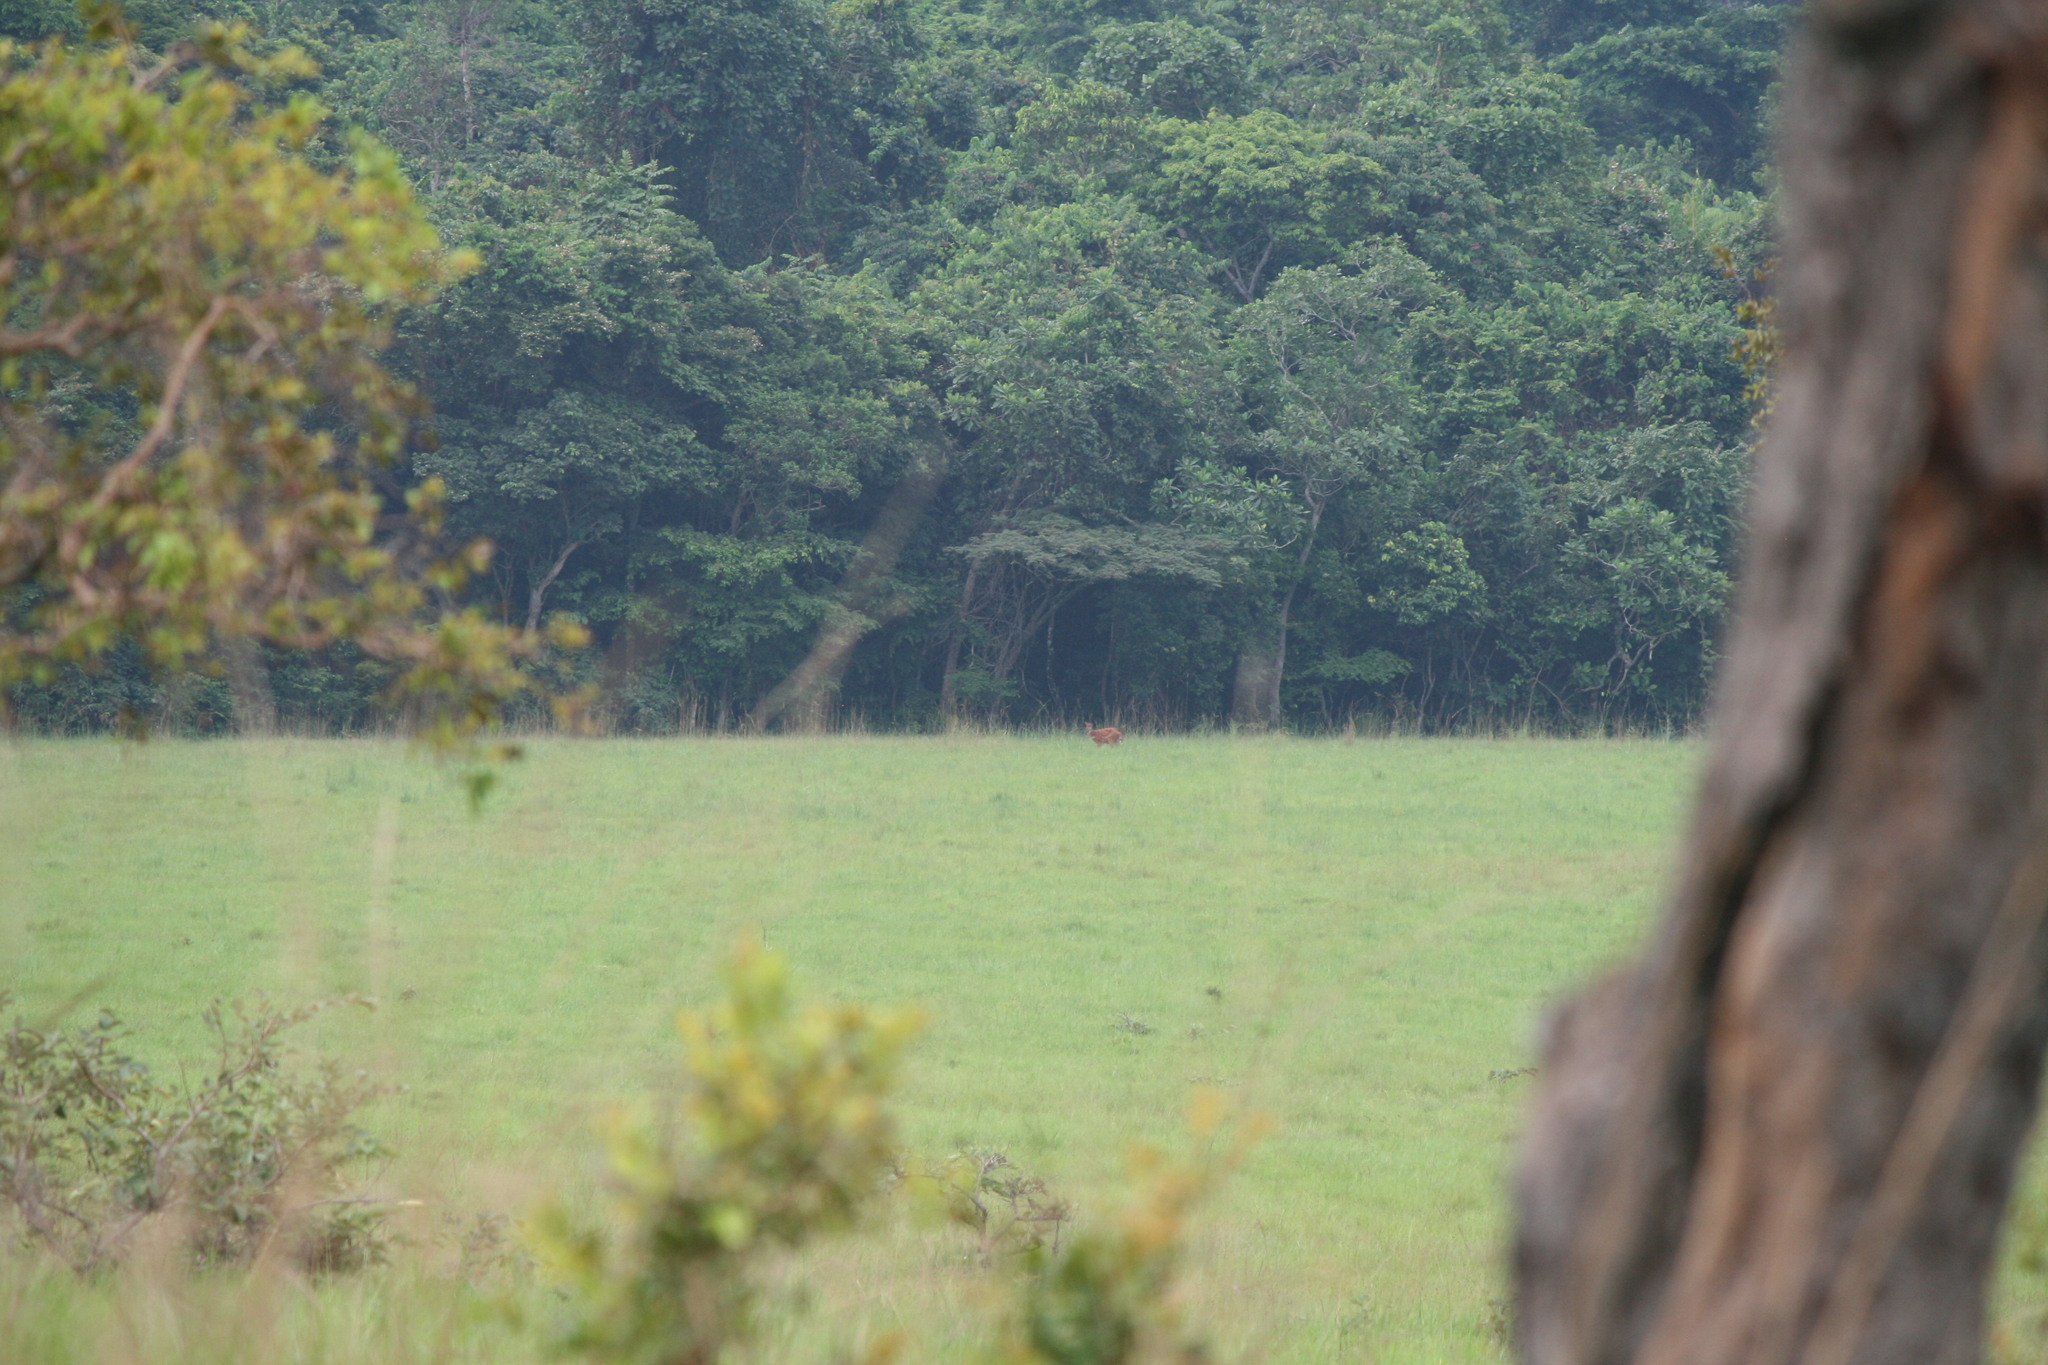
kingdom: Animalia
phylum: Chordata
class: Mammalia
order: Artiodactyla
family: Bovidae
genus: Tragelaphus
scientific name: Tragelaphus spekii
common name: Sitatunga
